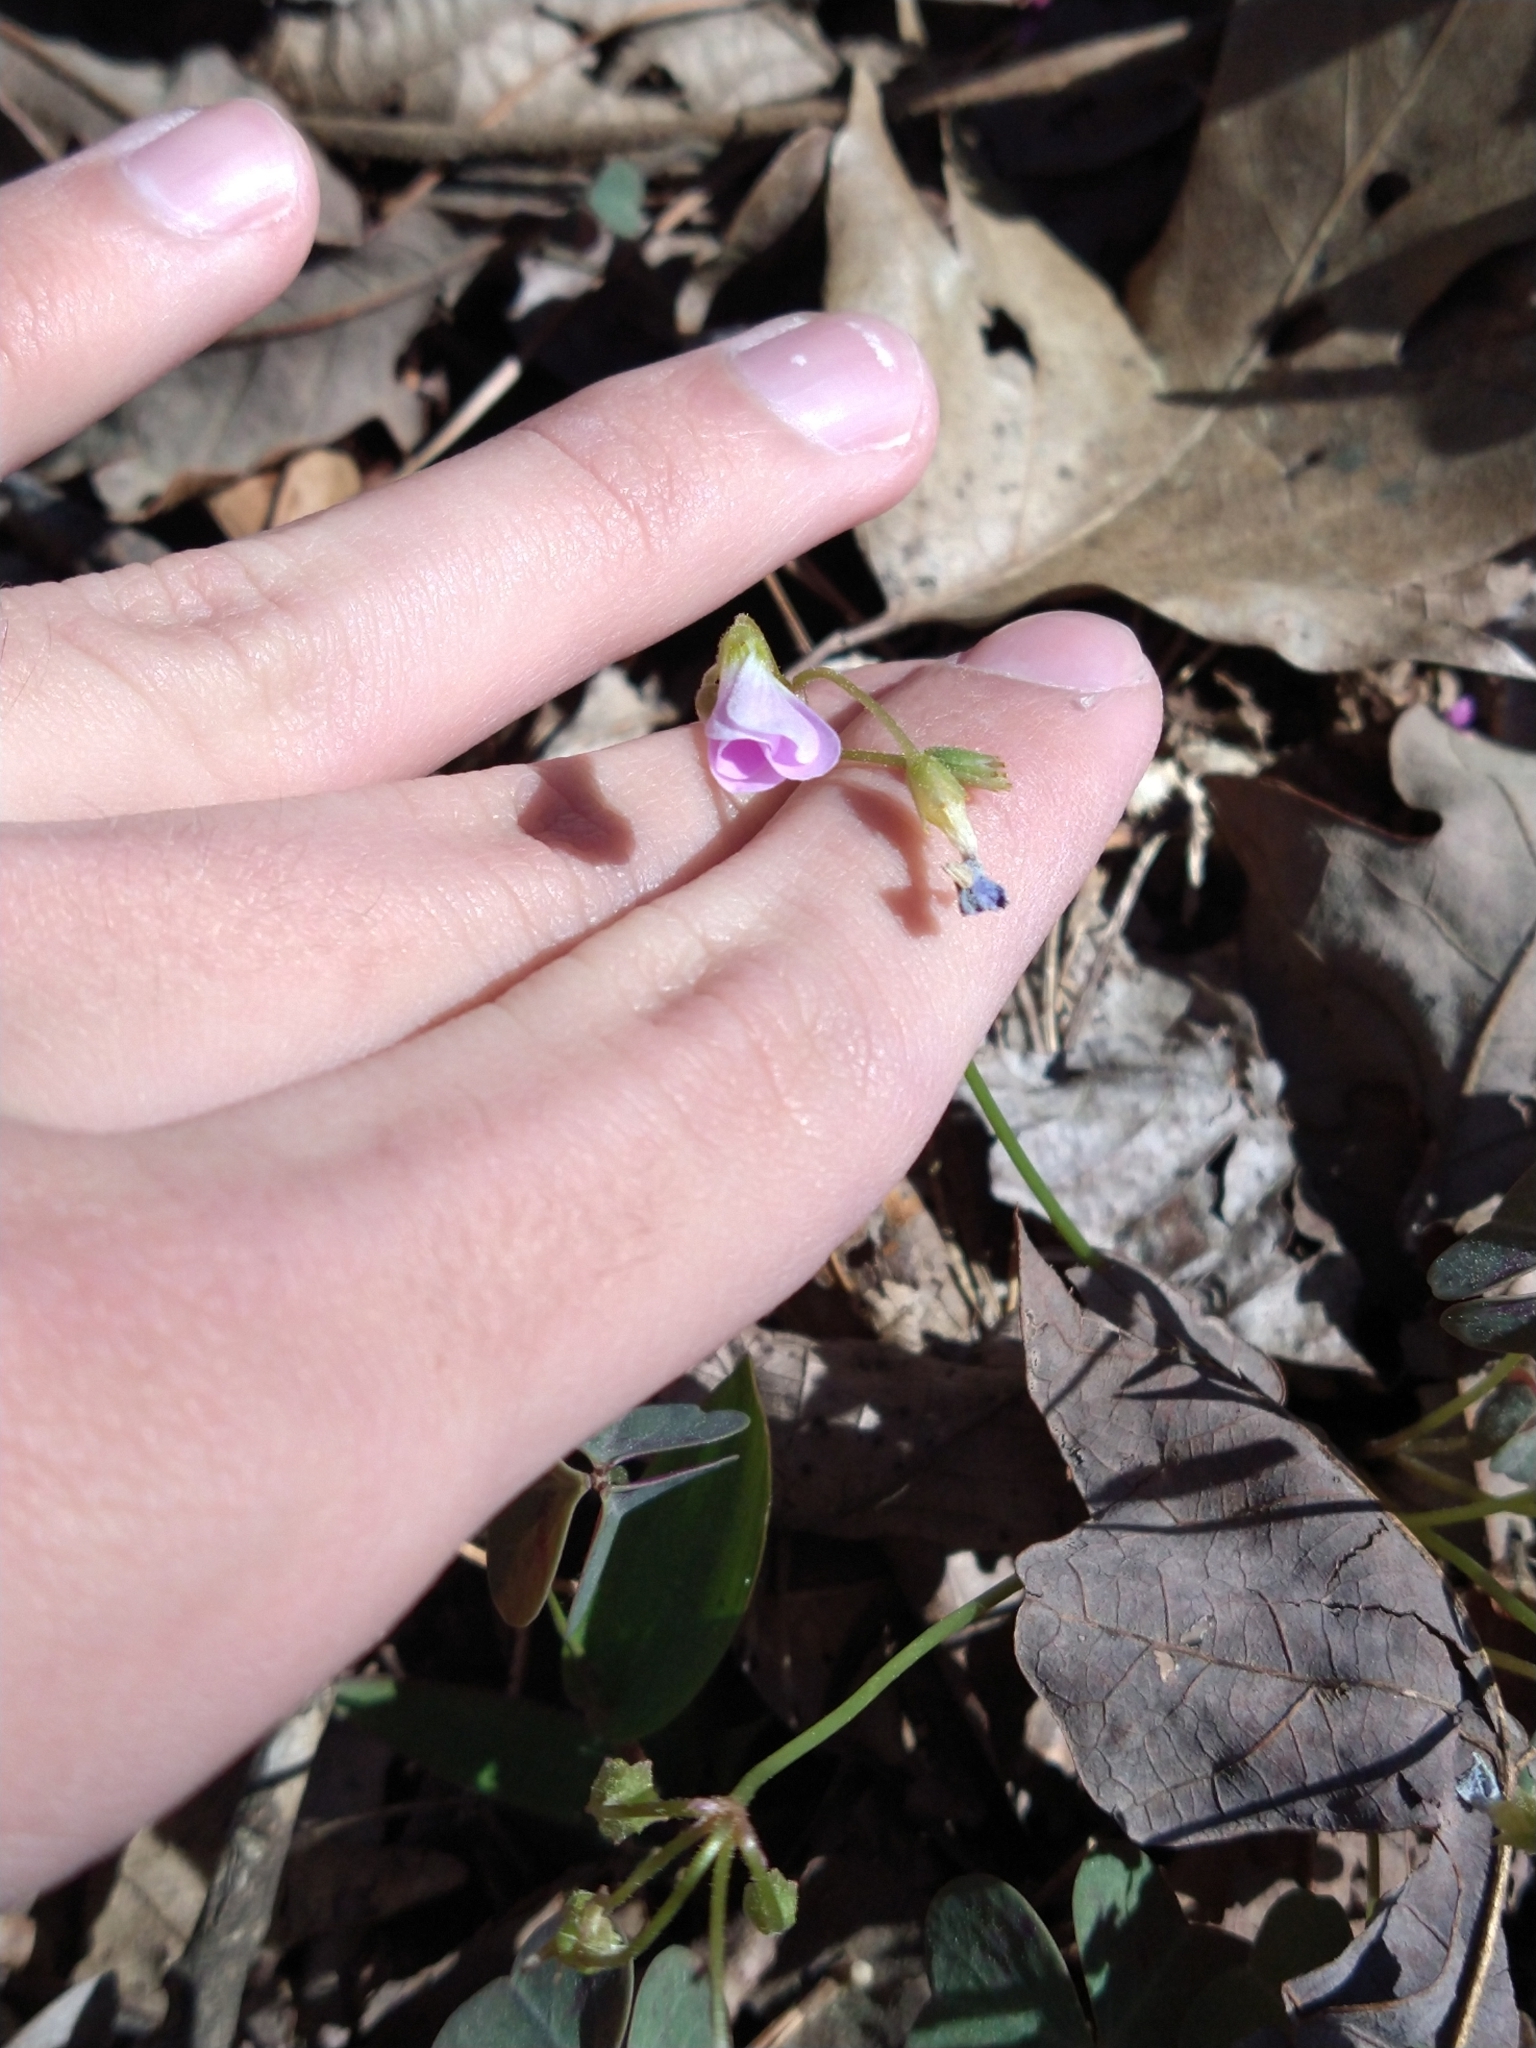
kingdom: Plantae
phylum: Tracheophyta
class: Magnoliopsida
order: Oxalidales
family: Oxalidaceae
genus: Oxalis
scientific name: Oxalis violacea
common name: Violet wood-sorrel
